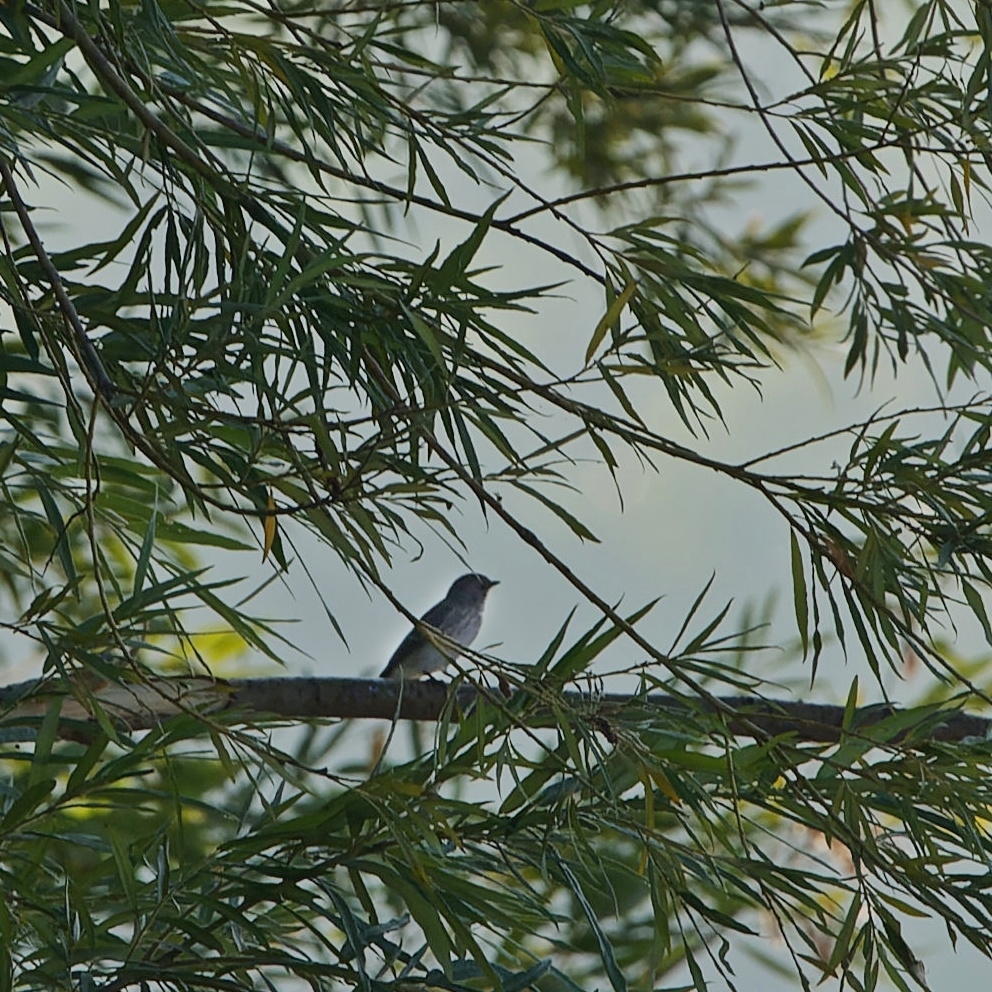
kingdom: Animalia
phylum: Chordata
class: Aves
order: Passeriformes
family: Muscicapidae
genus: Muscicapa
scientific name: Muscicapa striata
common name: Spotted flycatcher
